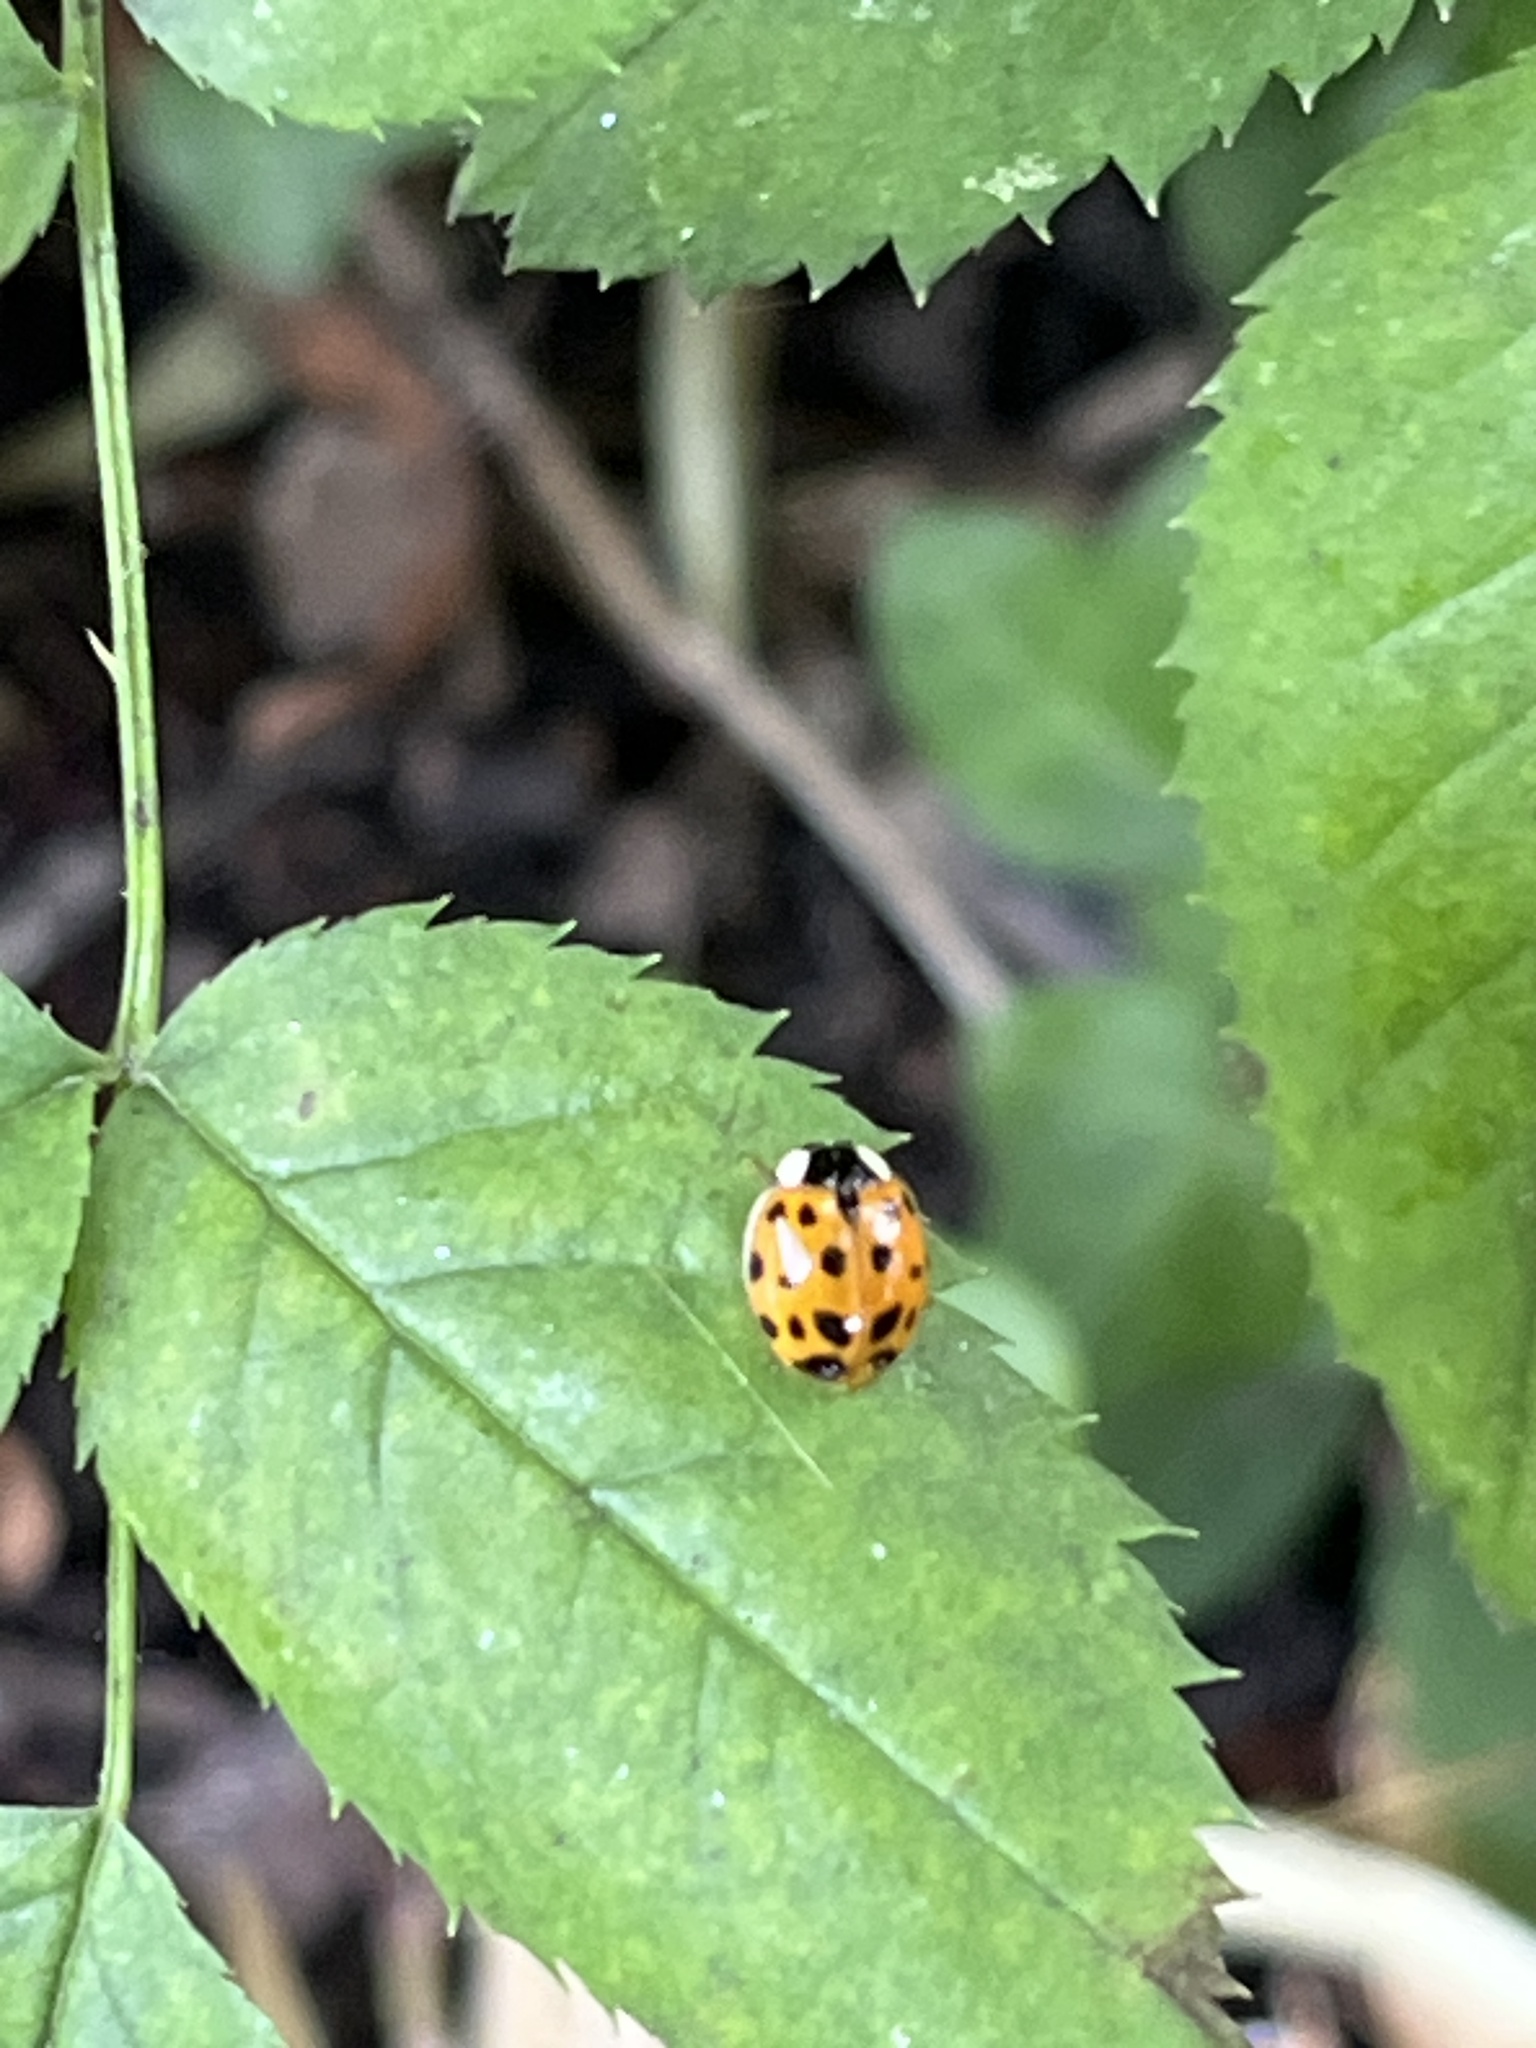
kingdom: Animalia
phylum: Arthropoda
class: Insecta
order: Coleoptera
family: Coccinellidae
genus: Harmonia
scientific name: Harmonia axyridis
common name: Harlequin ladybird
